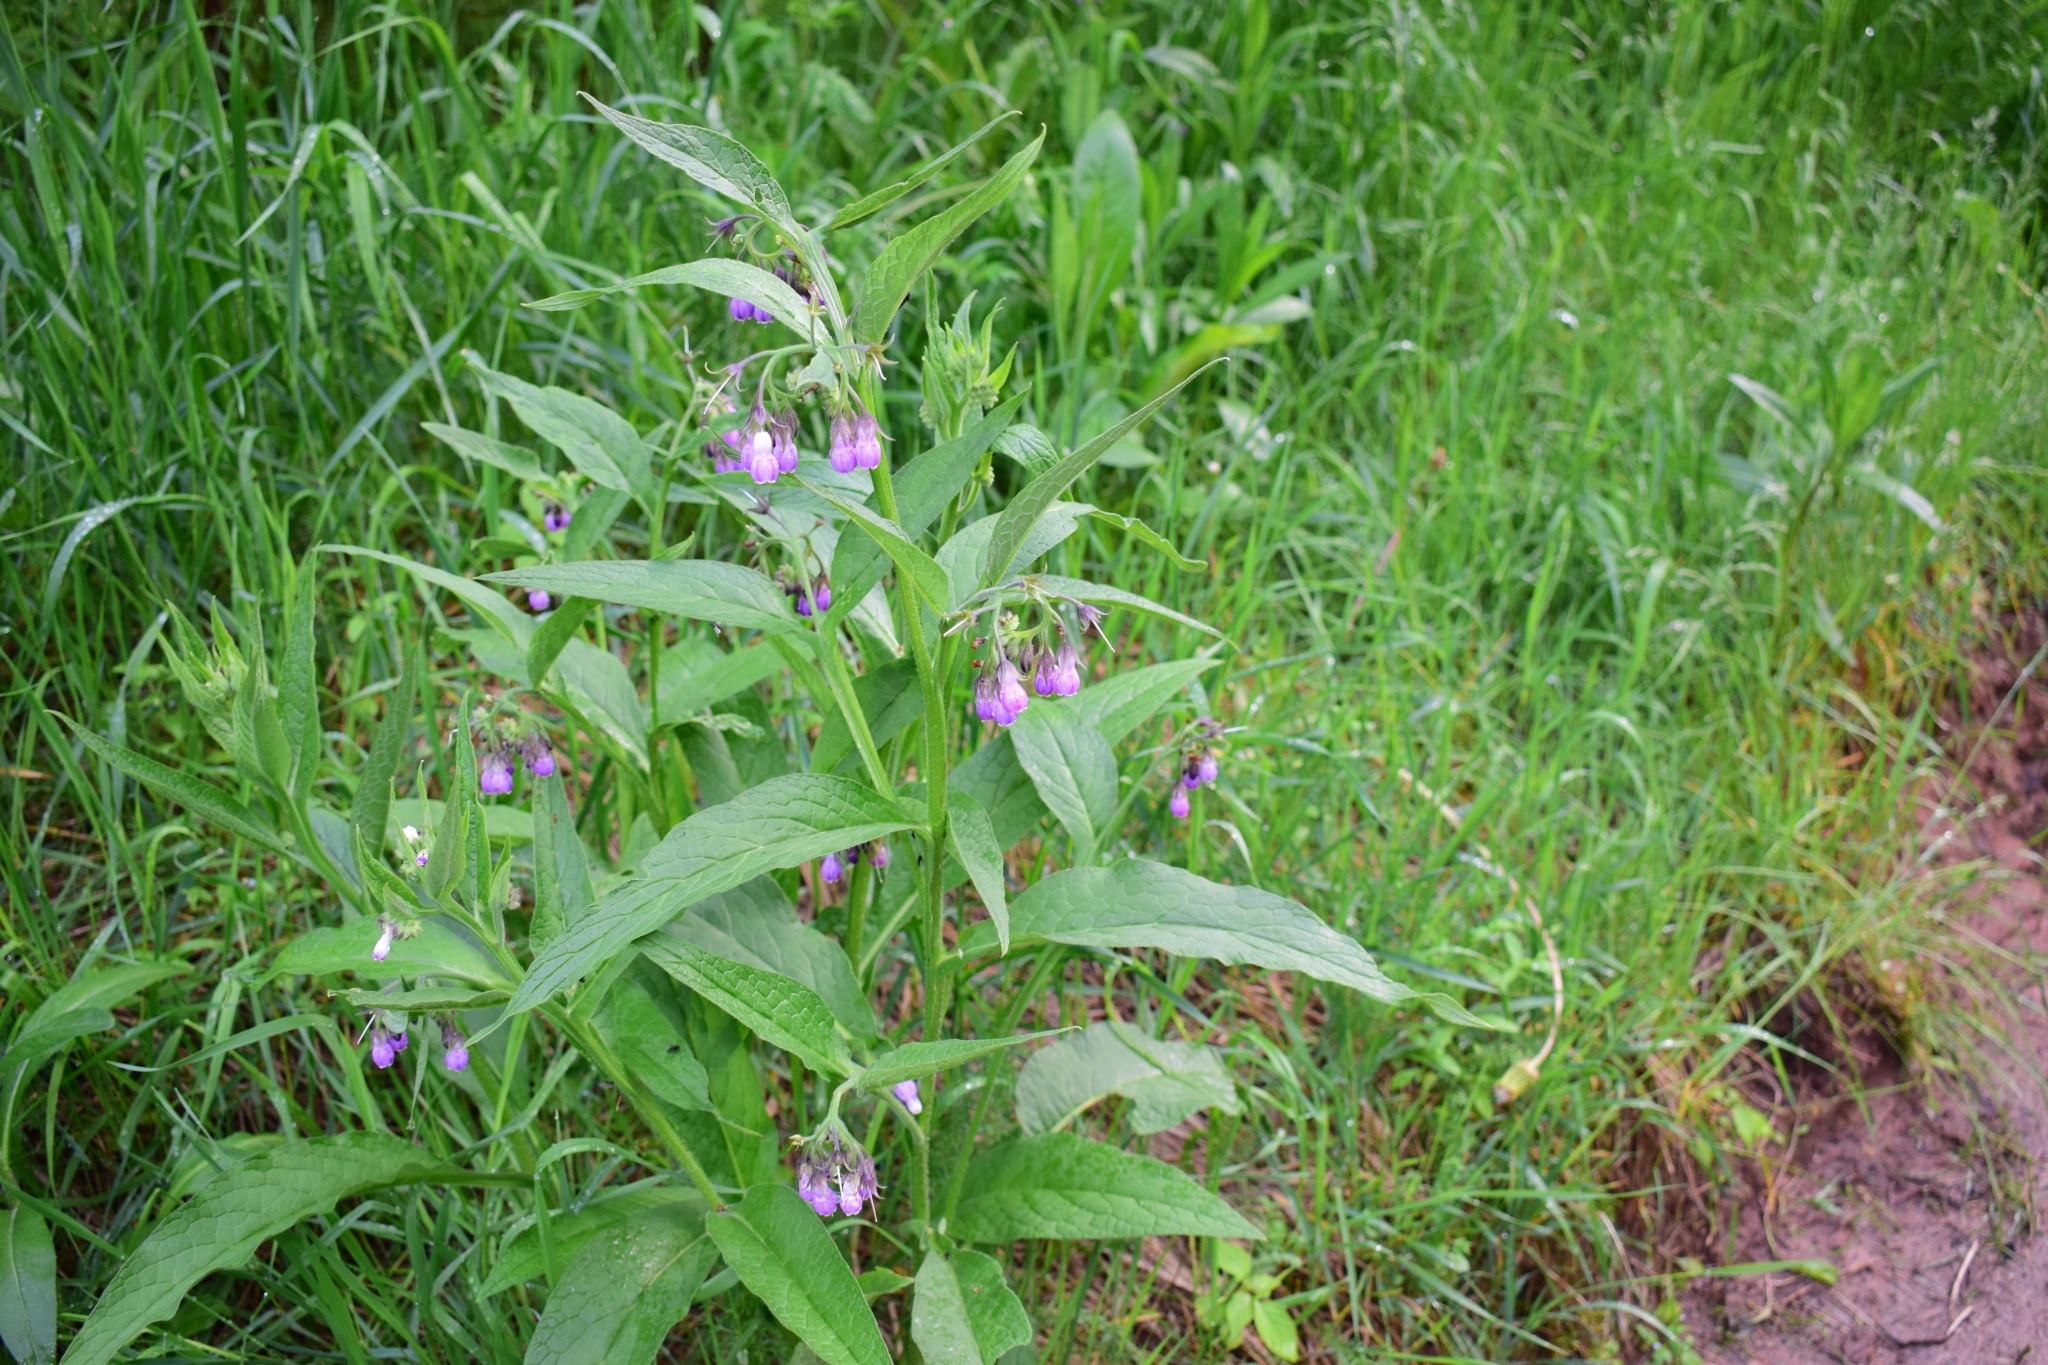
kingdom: Plantae
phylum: Tracheophyta
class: Magnoliopsida
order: Boraginales
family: Boraginaceae
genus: Symphytum
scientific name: Symphytum officinale
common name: Common comfrey
